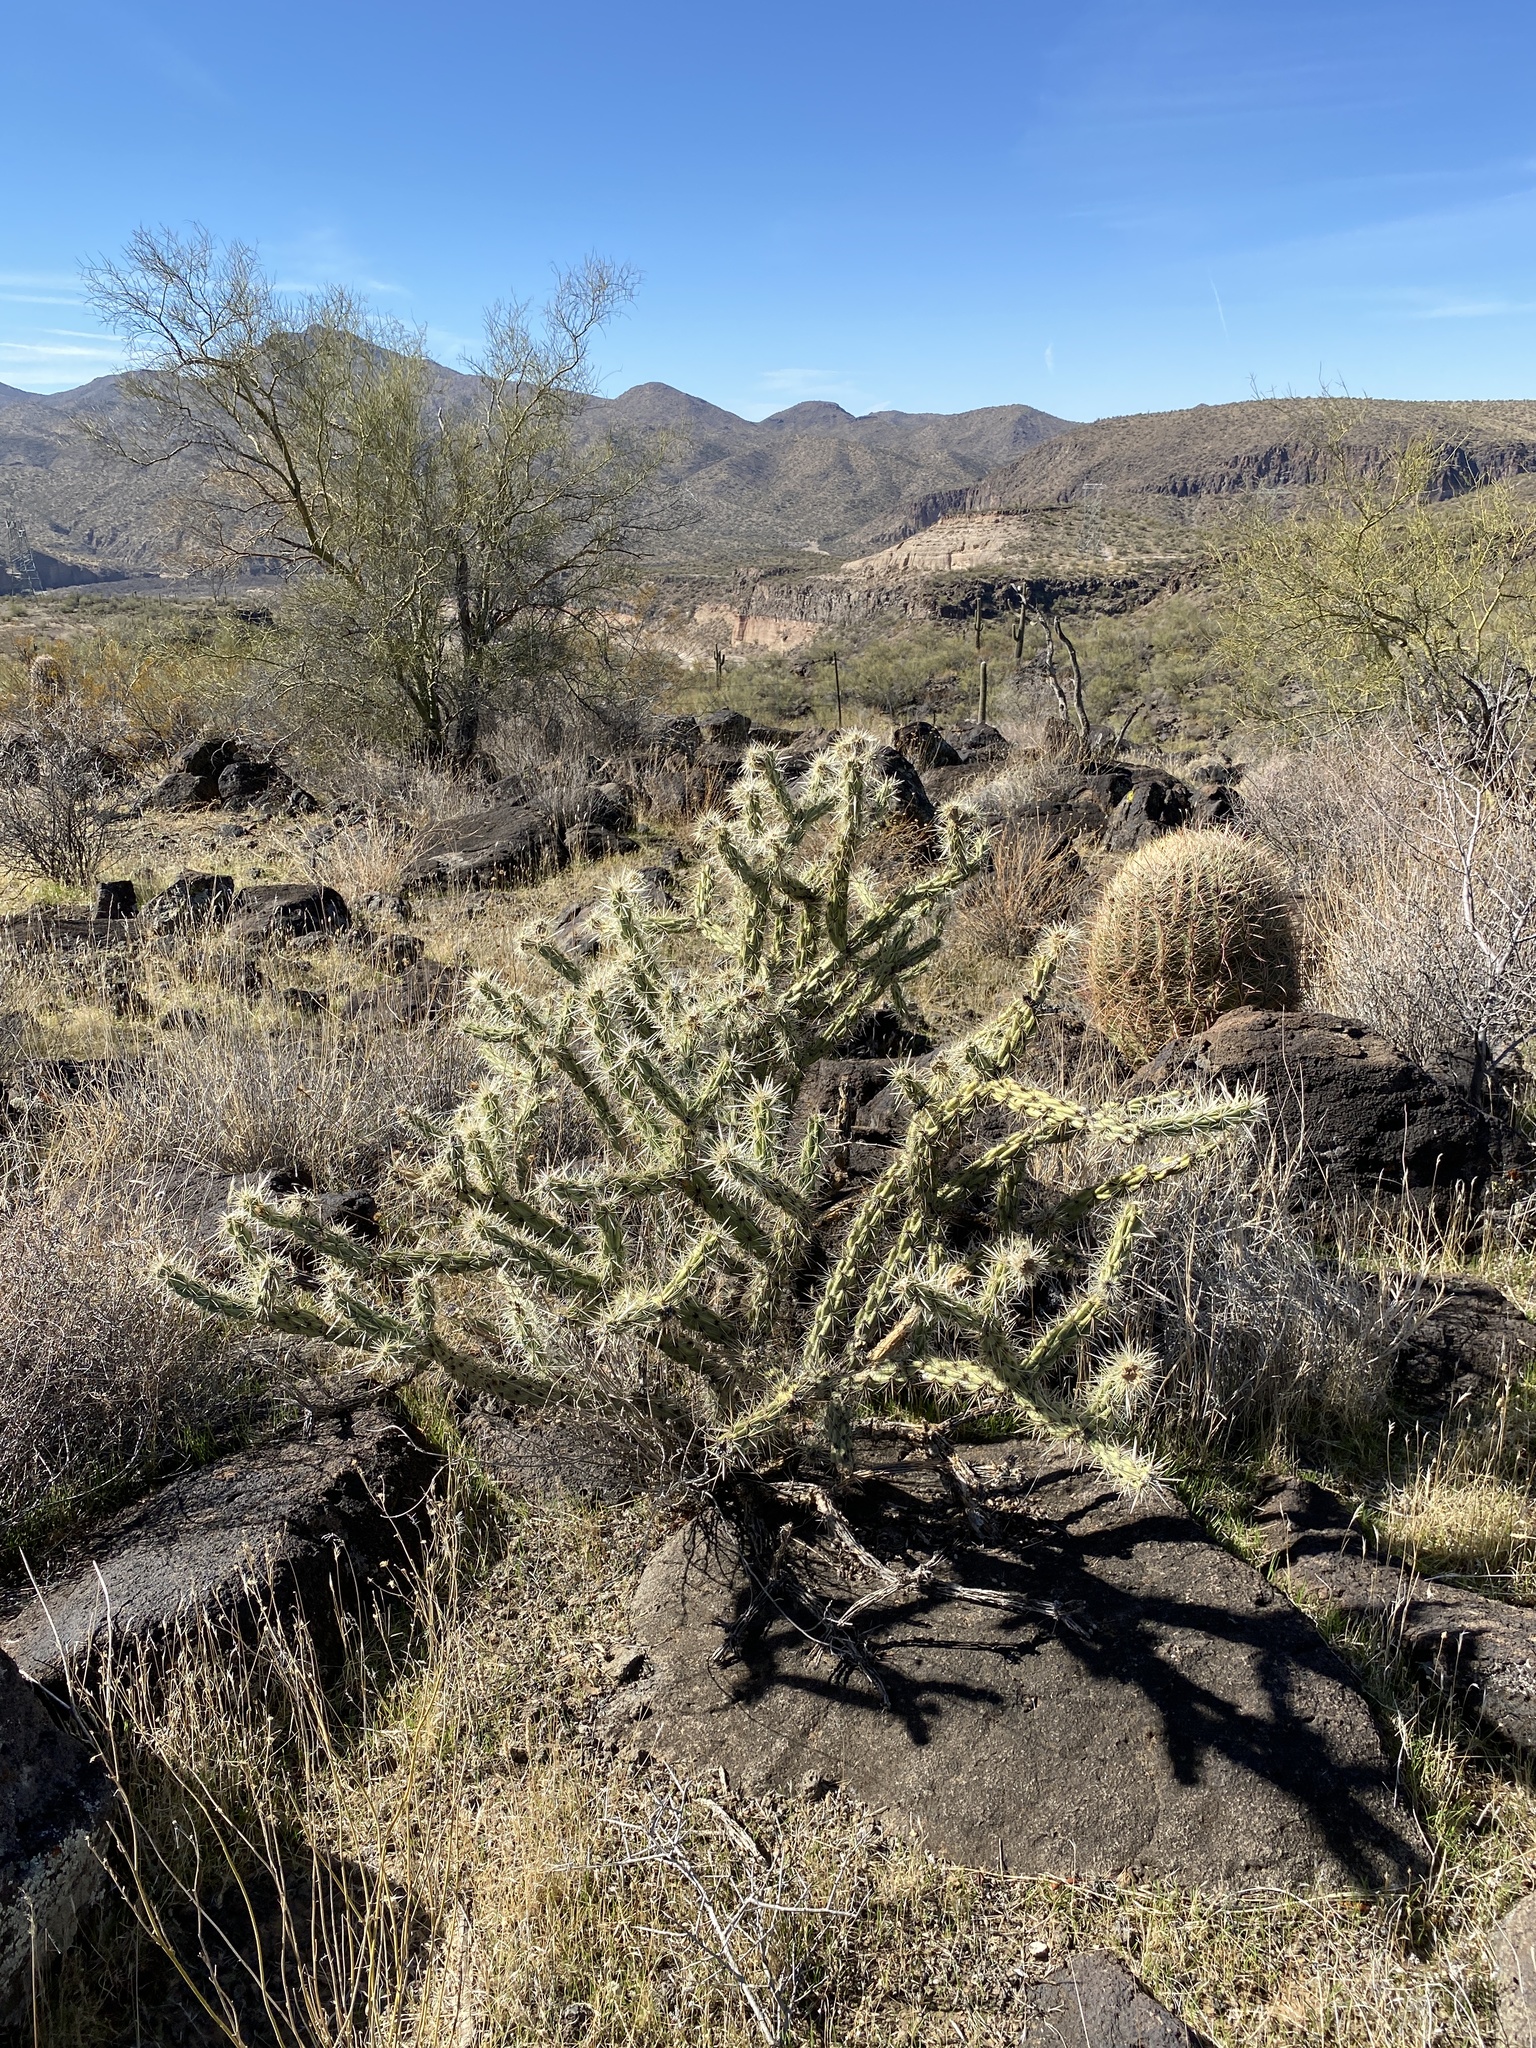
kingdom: Plantae
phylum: Tracheophyta
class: Magnoliopsida
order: Caryophyllales
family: Cactaceae
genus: Cylindropuntia
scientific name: Cylindropuntia acanthocarpa
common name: Buckhorn cholla
